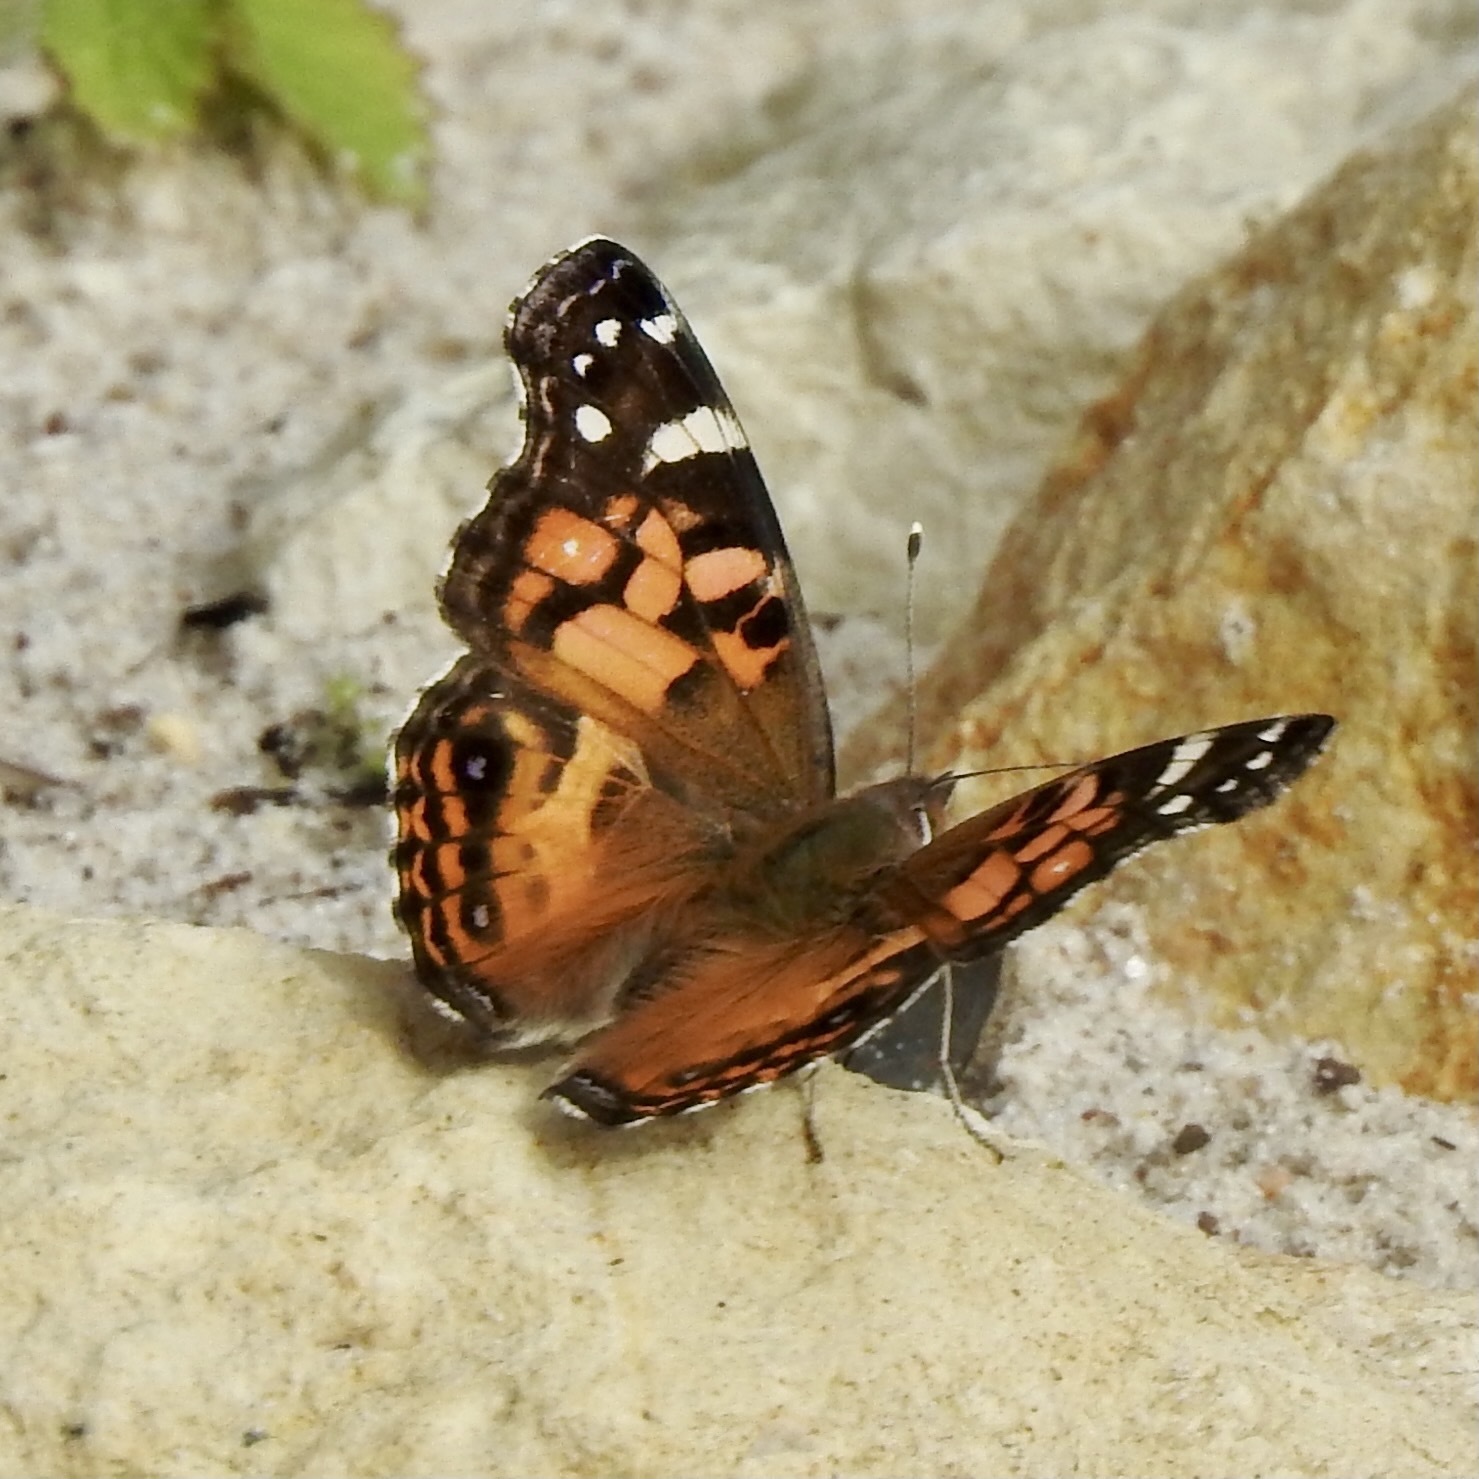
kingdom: Animalia
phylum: Arthropoda
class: Insecta
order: Lepidoptera
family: Nymphalidae
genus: Vanessa
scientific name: Vanessa virginiensis
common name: American lady
